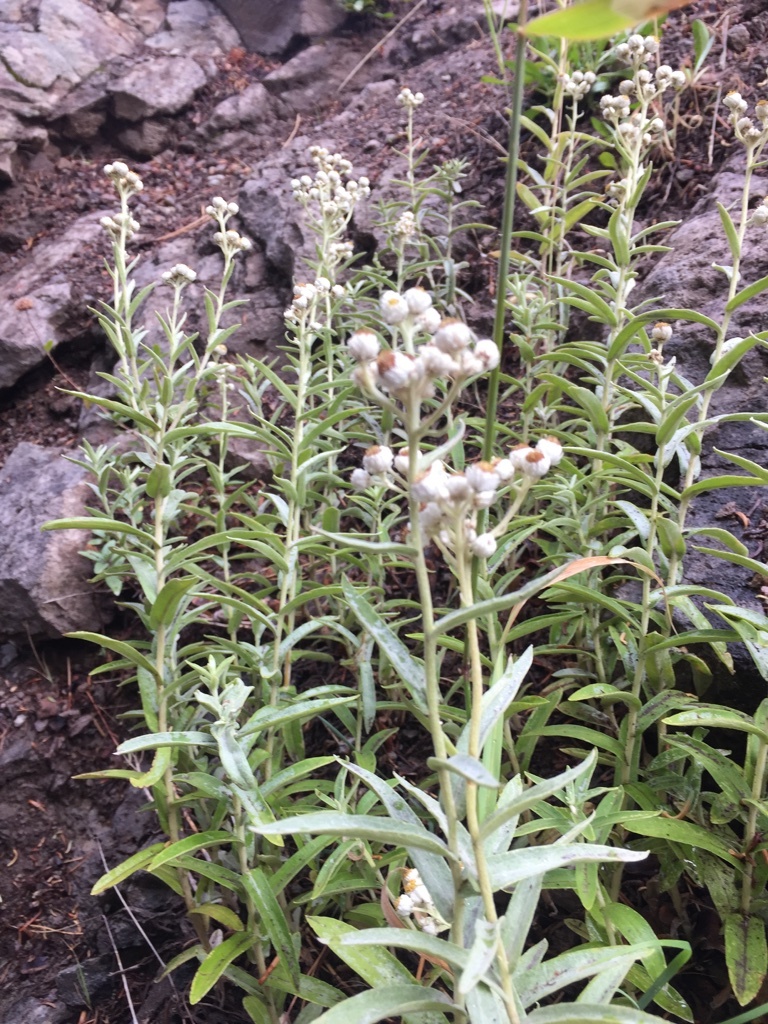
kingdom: Plantae
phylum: Tracheophyta
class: Magnoliopsida
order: Asterales
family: Asteraceae
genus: Anaphalis
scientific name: Anaphalis margaritacea
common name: Pearly everlasting
